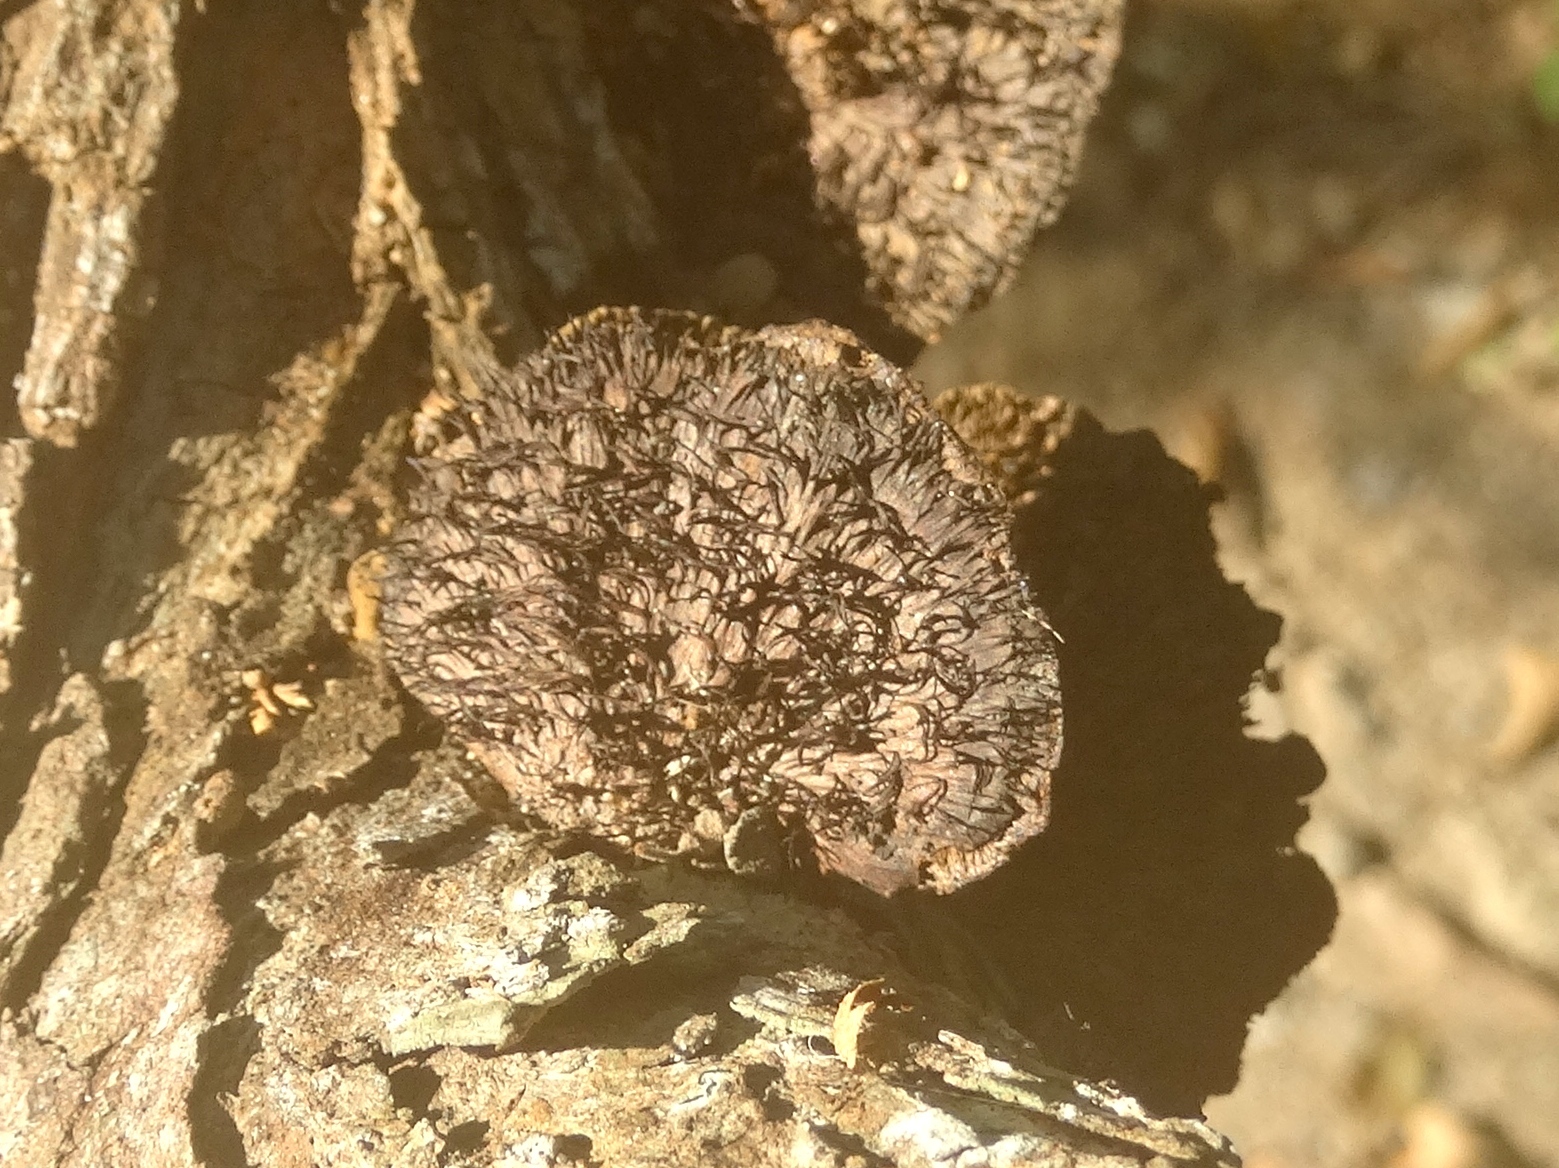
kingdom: Fungi
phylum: Basidiomycota
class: Agaricomycetes
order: Polyporales
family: Cerrenaceae
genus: Cerrena
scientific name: Cerrena hydnoides
